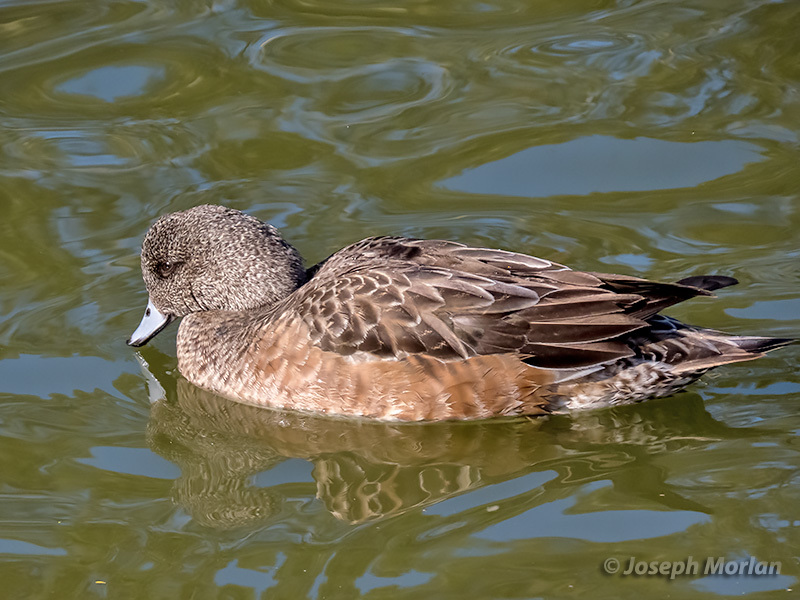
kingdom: Animalia
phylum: Chordata
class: Aves
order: Anseriformes
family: Anatidae
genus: Mareca
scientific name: Mareca americana
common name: American wigeon
